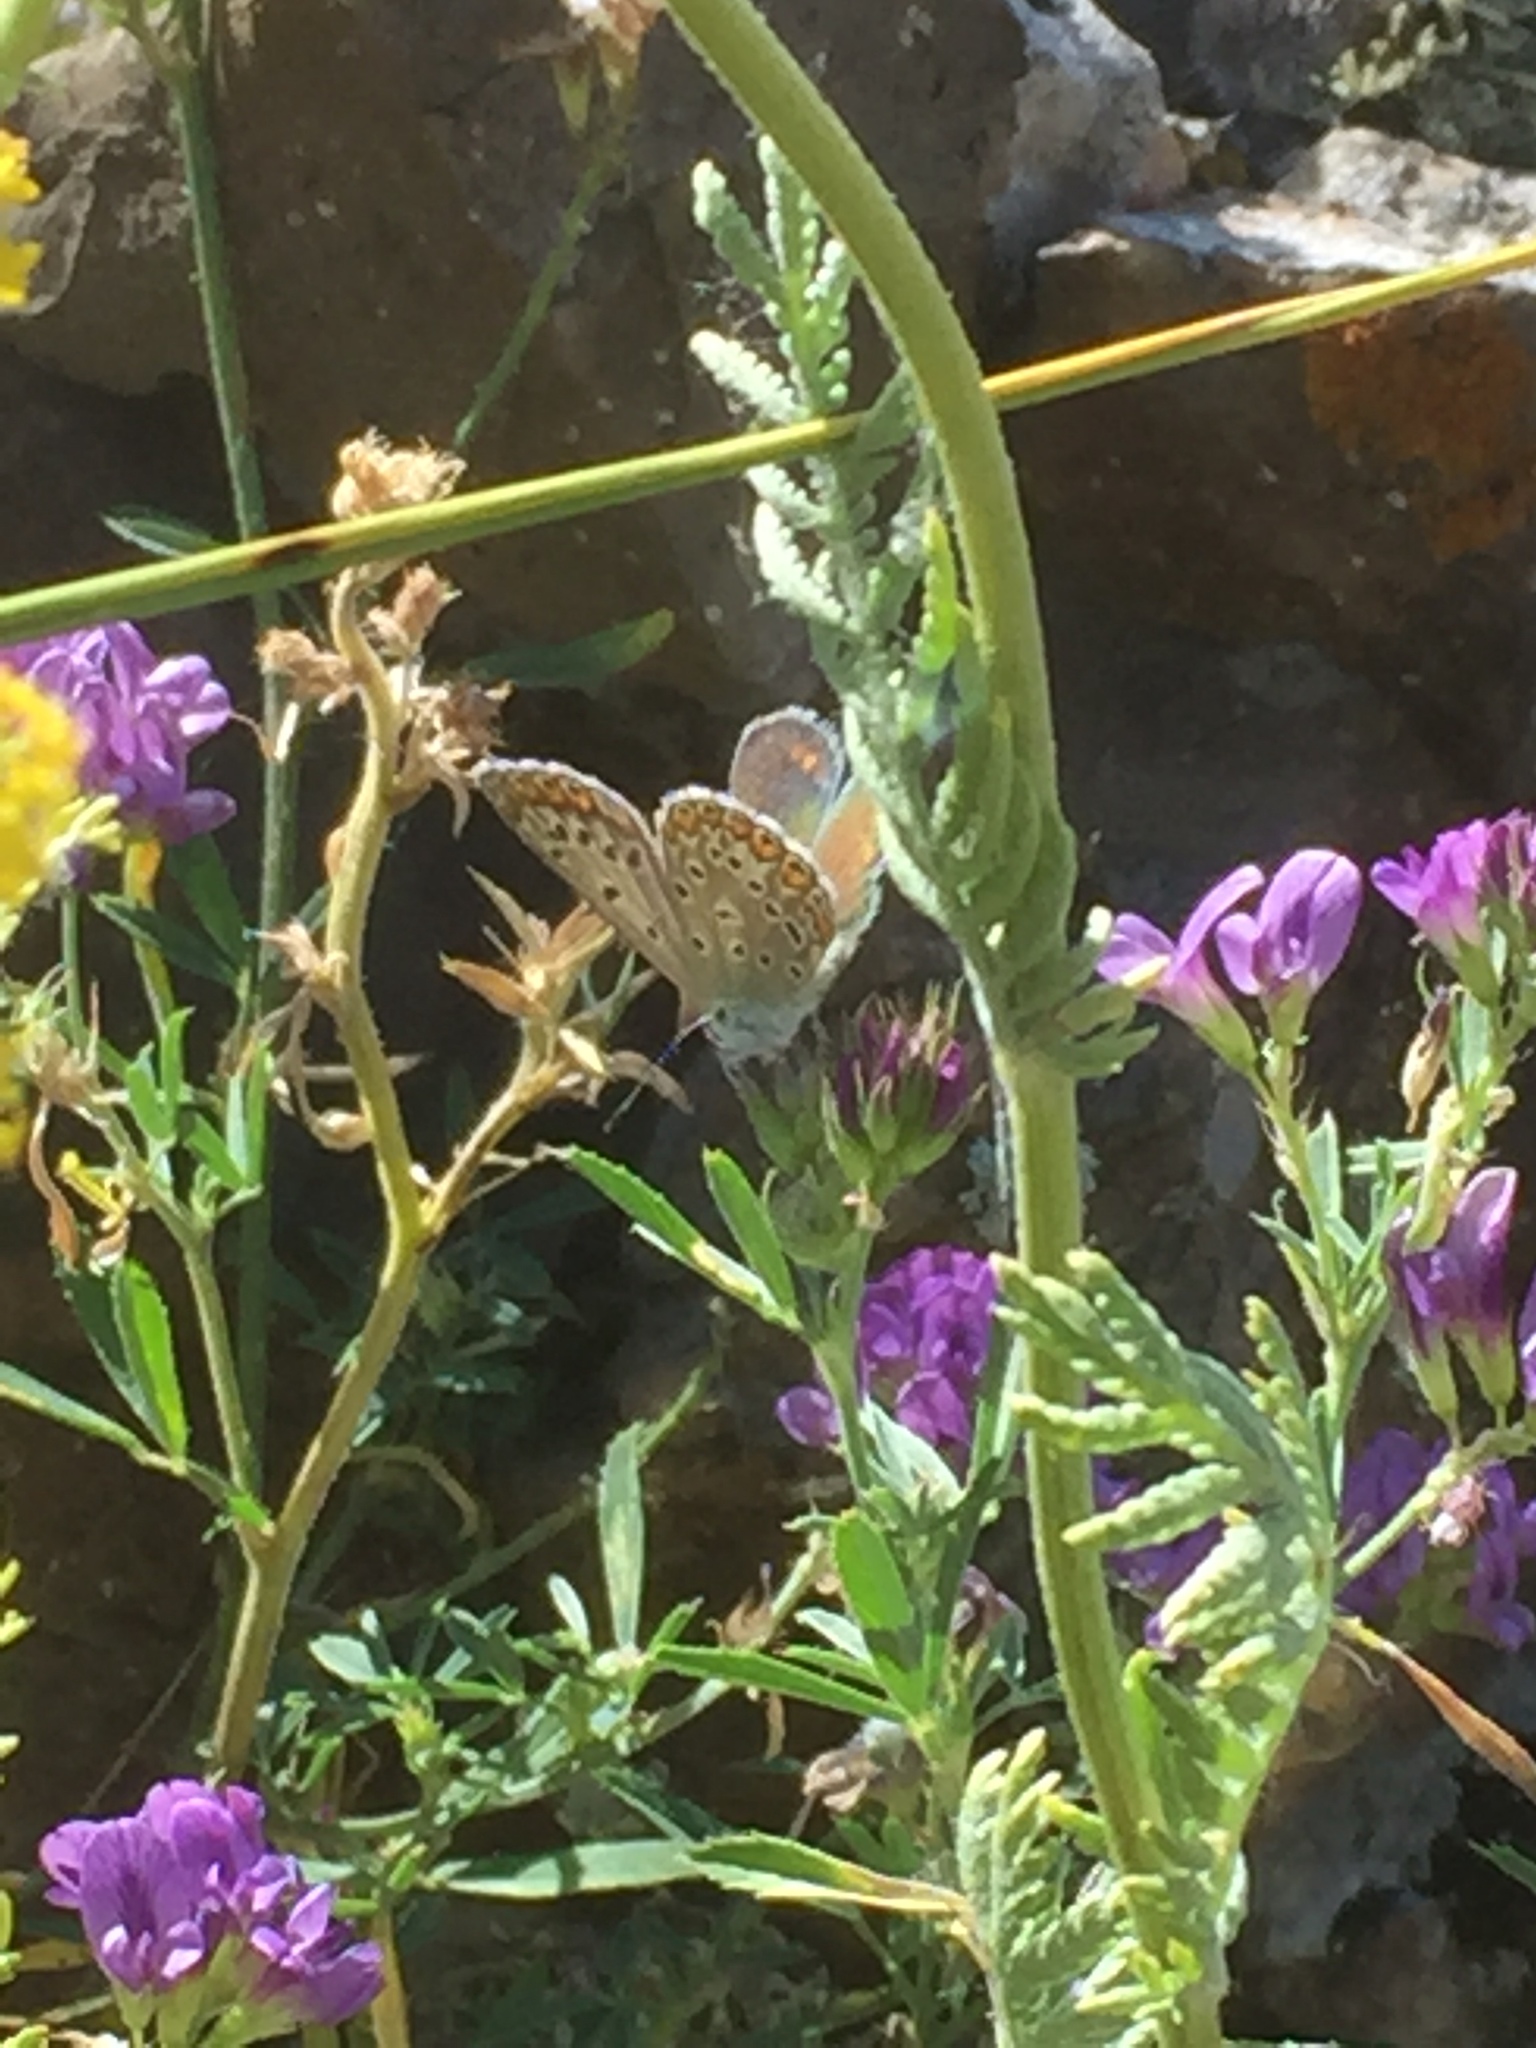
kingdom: Animalia
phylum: Arthropoda
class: Insecta
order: Lepidoptera
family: Lycaenidae
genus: Polyommatus
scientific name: Polyommatus icarus
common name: Common blue
